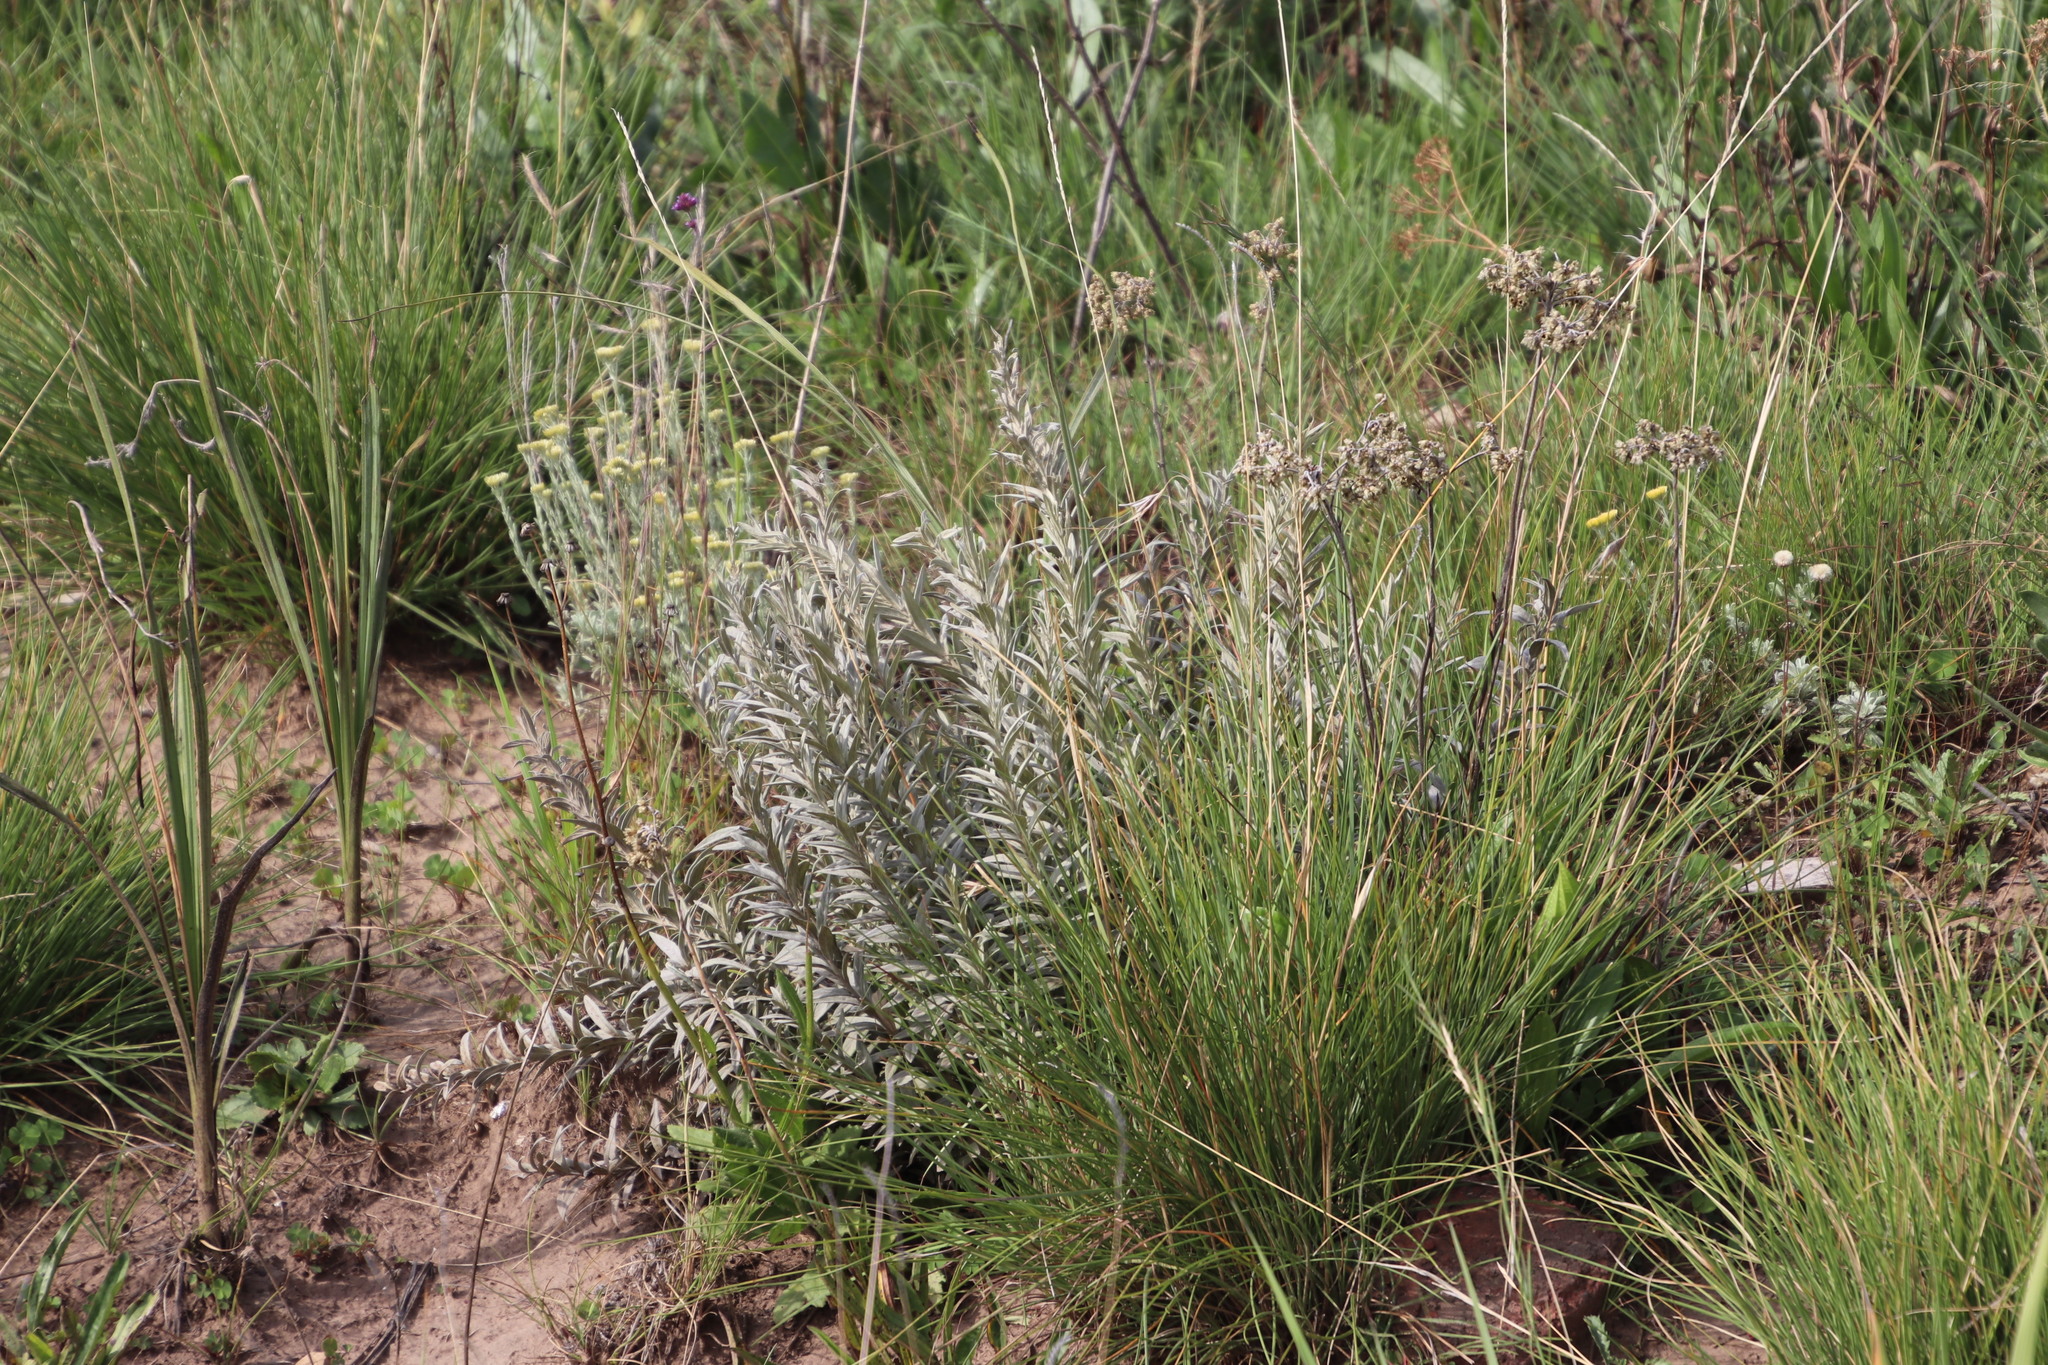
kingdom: Plantae
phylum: Tracheophyta
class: Magnoliopsida
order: Asterales
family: Asteraceae
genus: Hilliardiella
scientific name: Hilliardiella aristata
